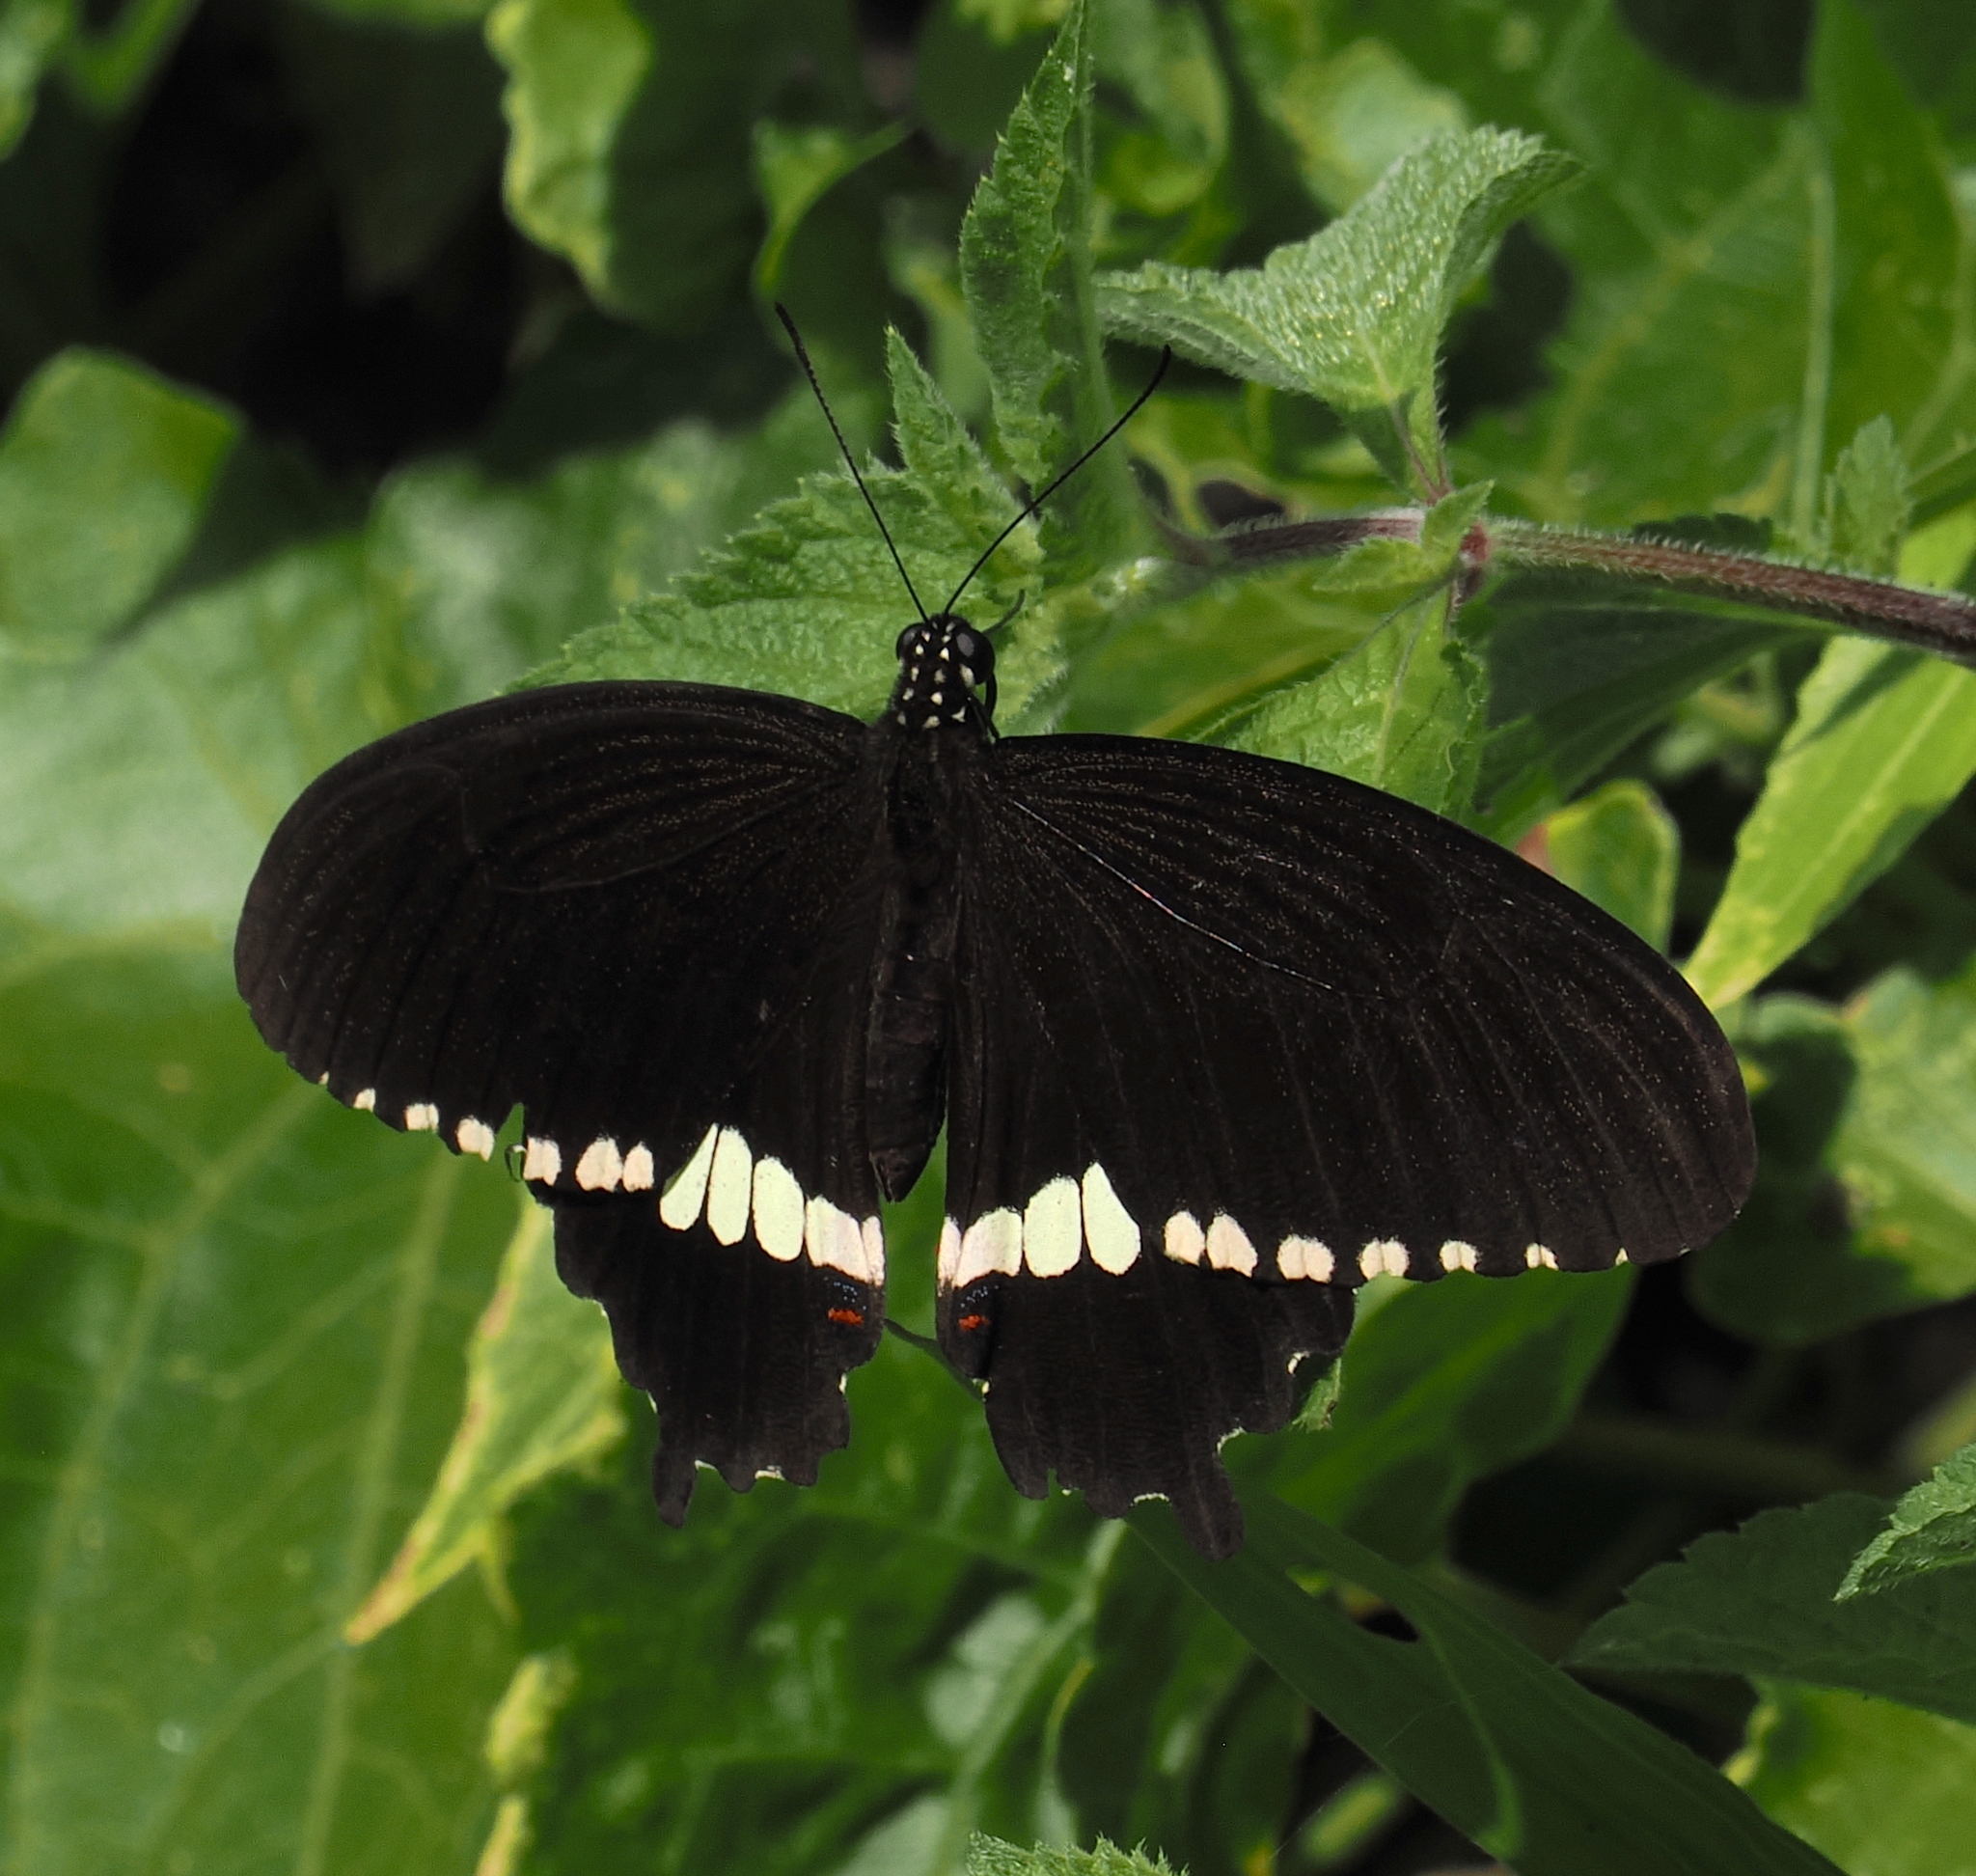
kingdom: Animalia
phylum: Arthropoda
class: Insecta
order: Lepidoptera
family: Papilionidae
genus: Papilio
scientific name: Papilio polytes
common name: Common mormon
